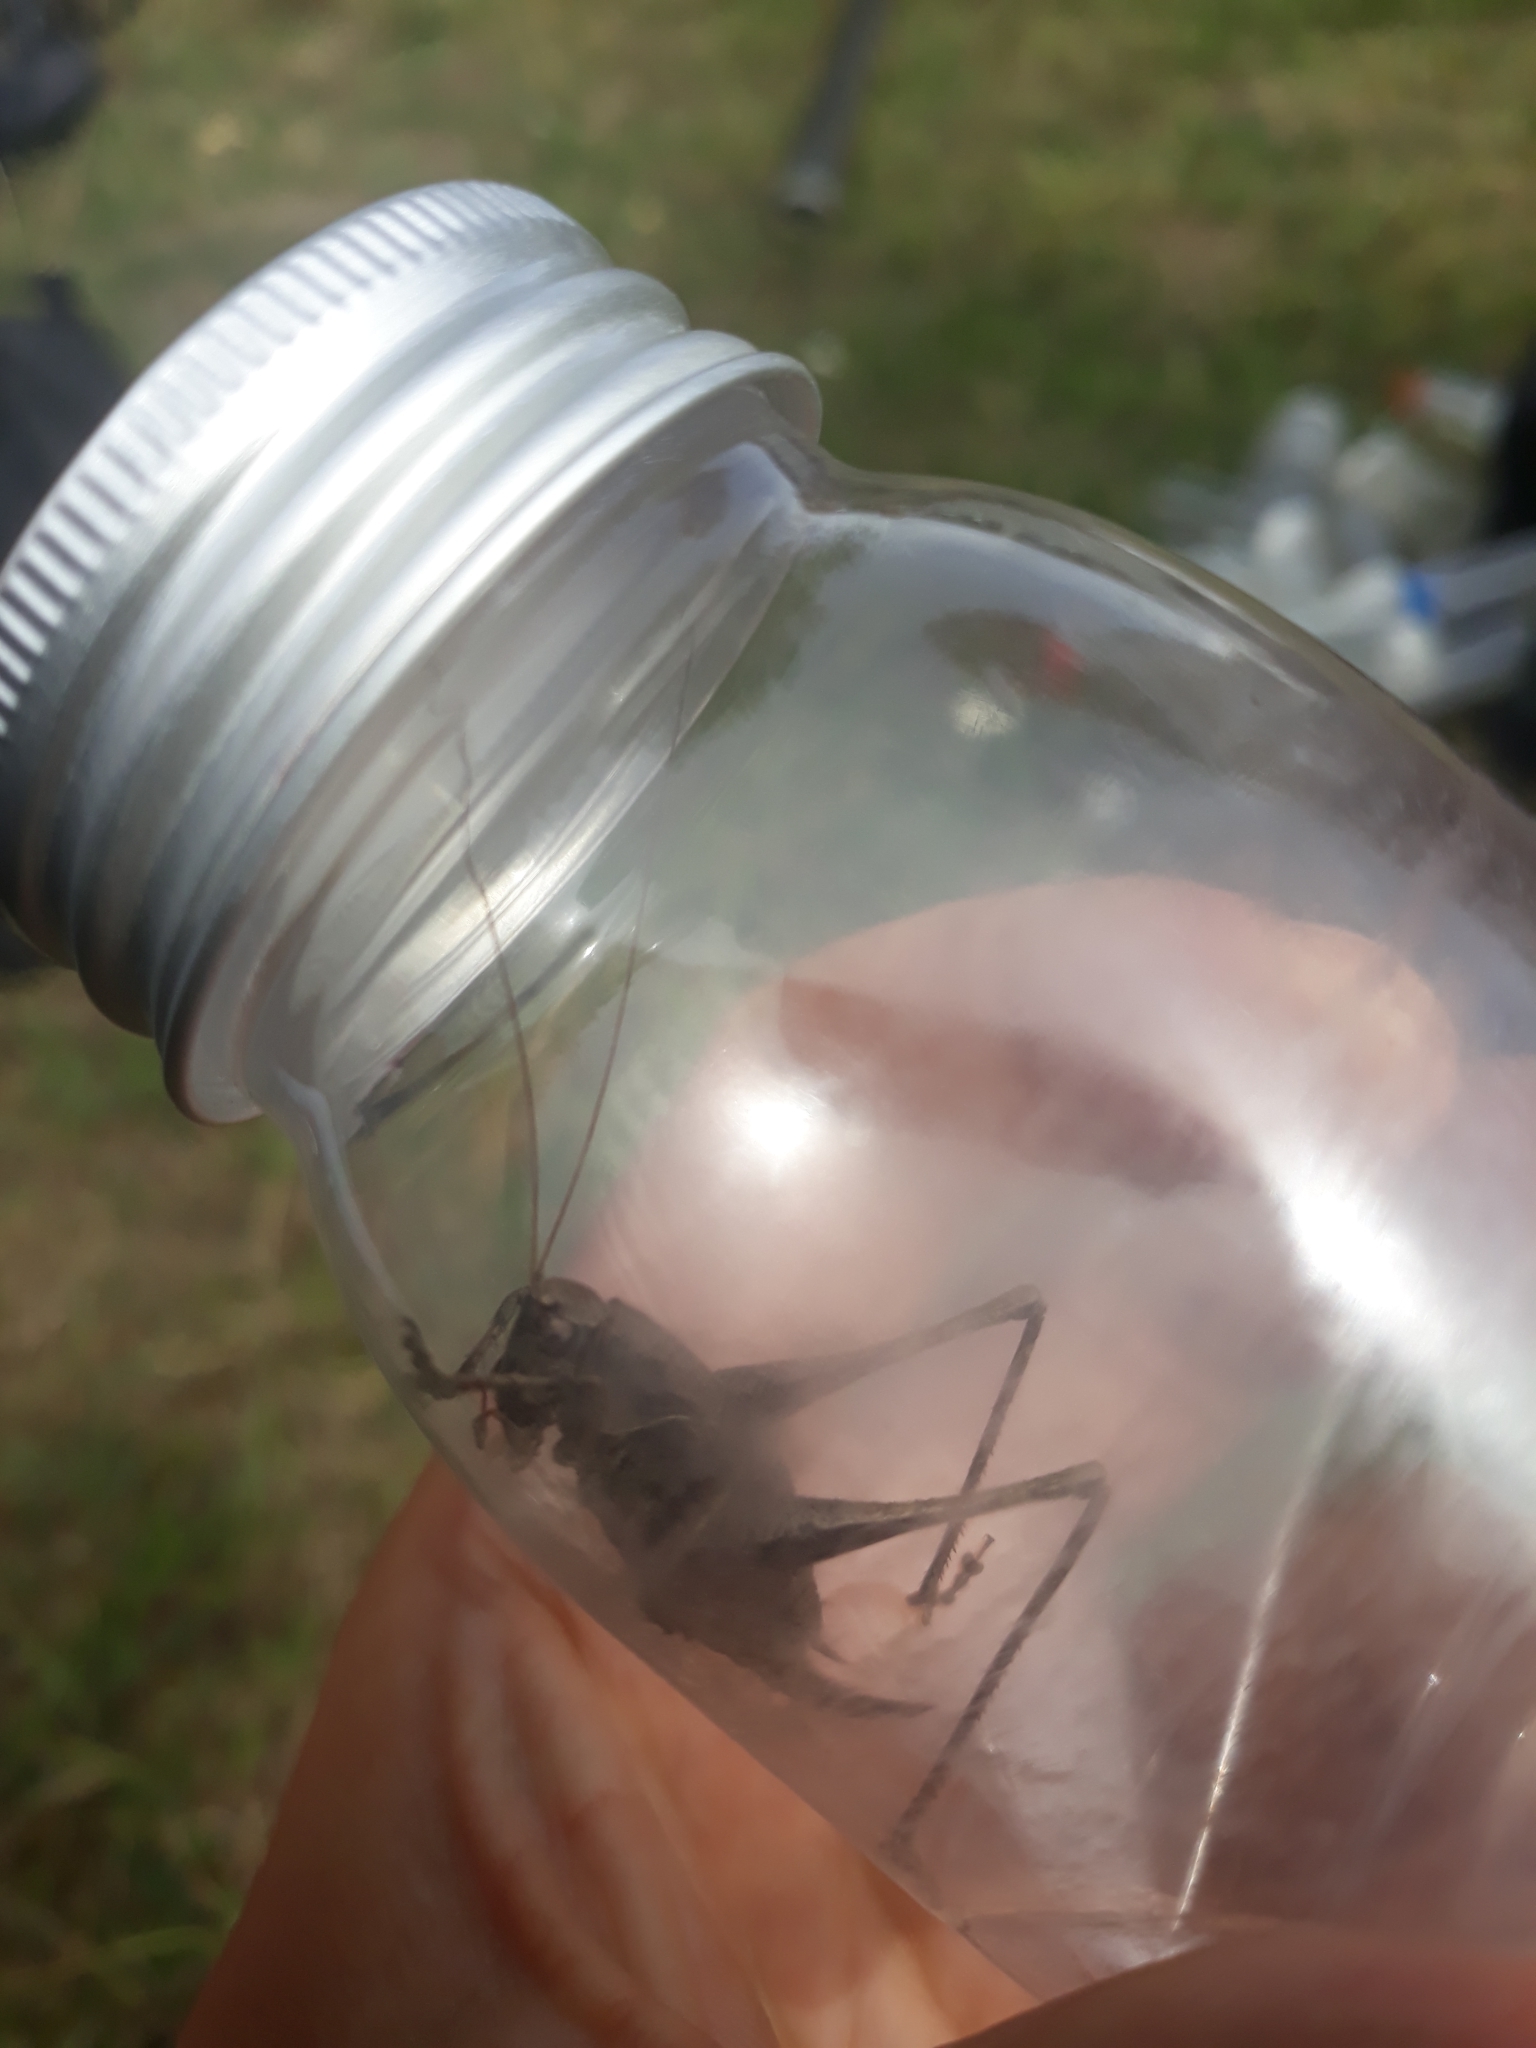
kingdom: Animalia
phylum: Arthropoda
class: Insecta
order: Orthoptera
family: Tettigoniidae
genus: Pholidoptera
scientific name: Pholidoptera griseoaptera
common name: Dark bush-cricket
